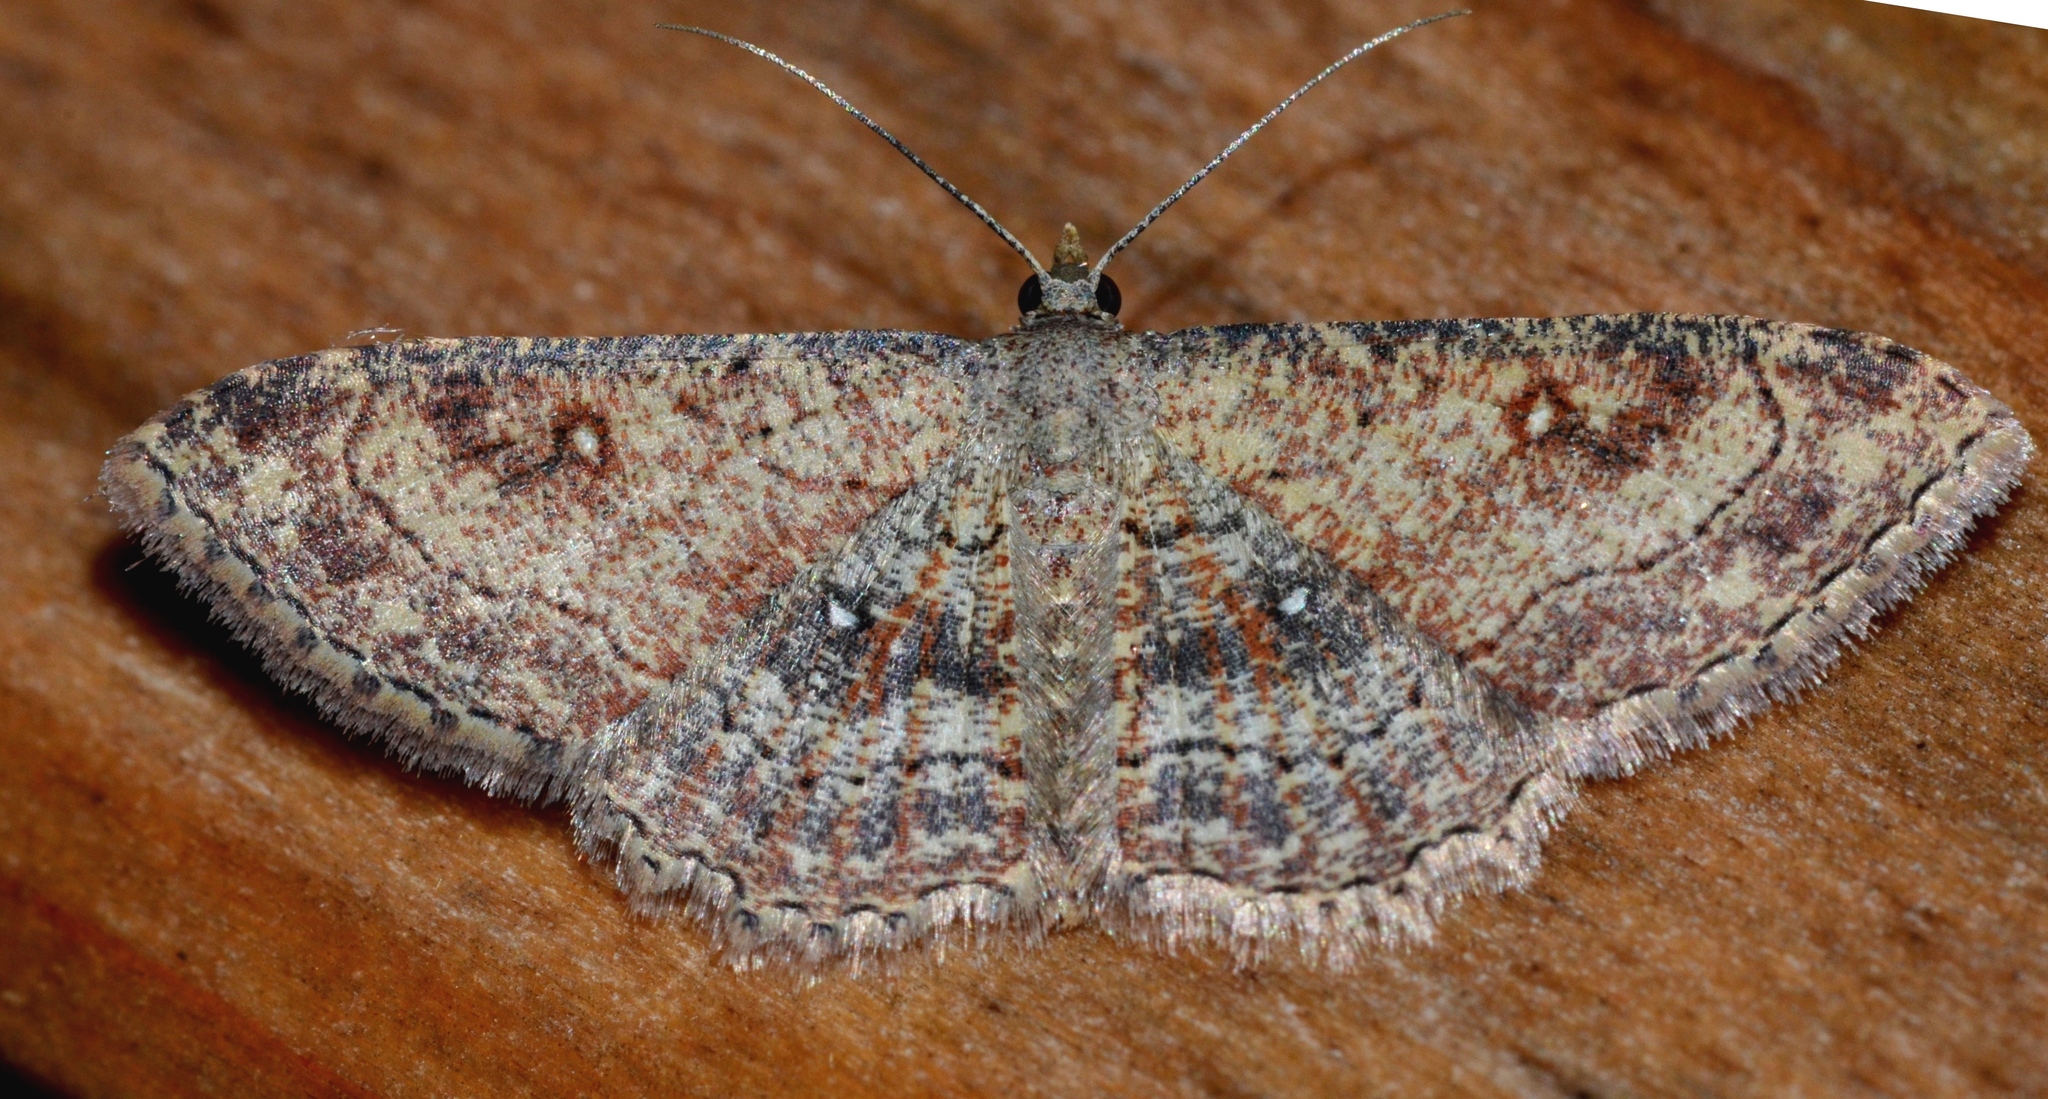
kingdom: Animalia
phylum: Arthropoda
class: Insecta
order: Lepidoptera
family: Geometridae
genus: Cyclophora
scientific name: Cyclophora nanaria
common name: Cankerworm
